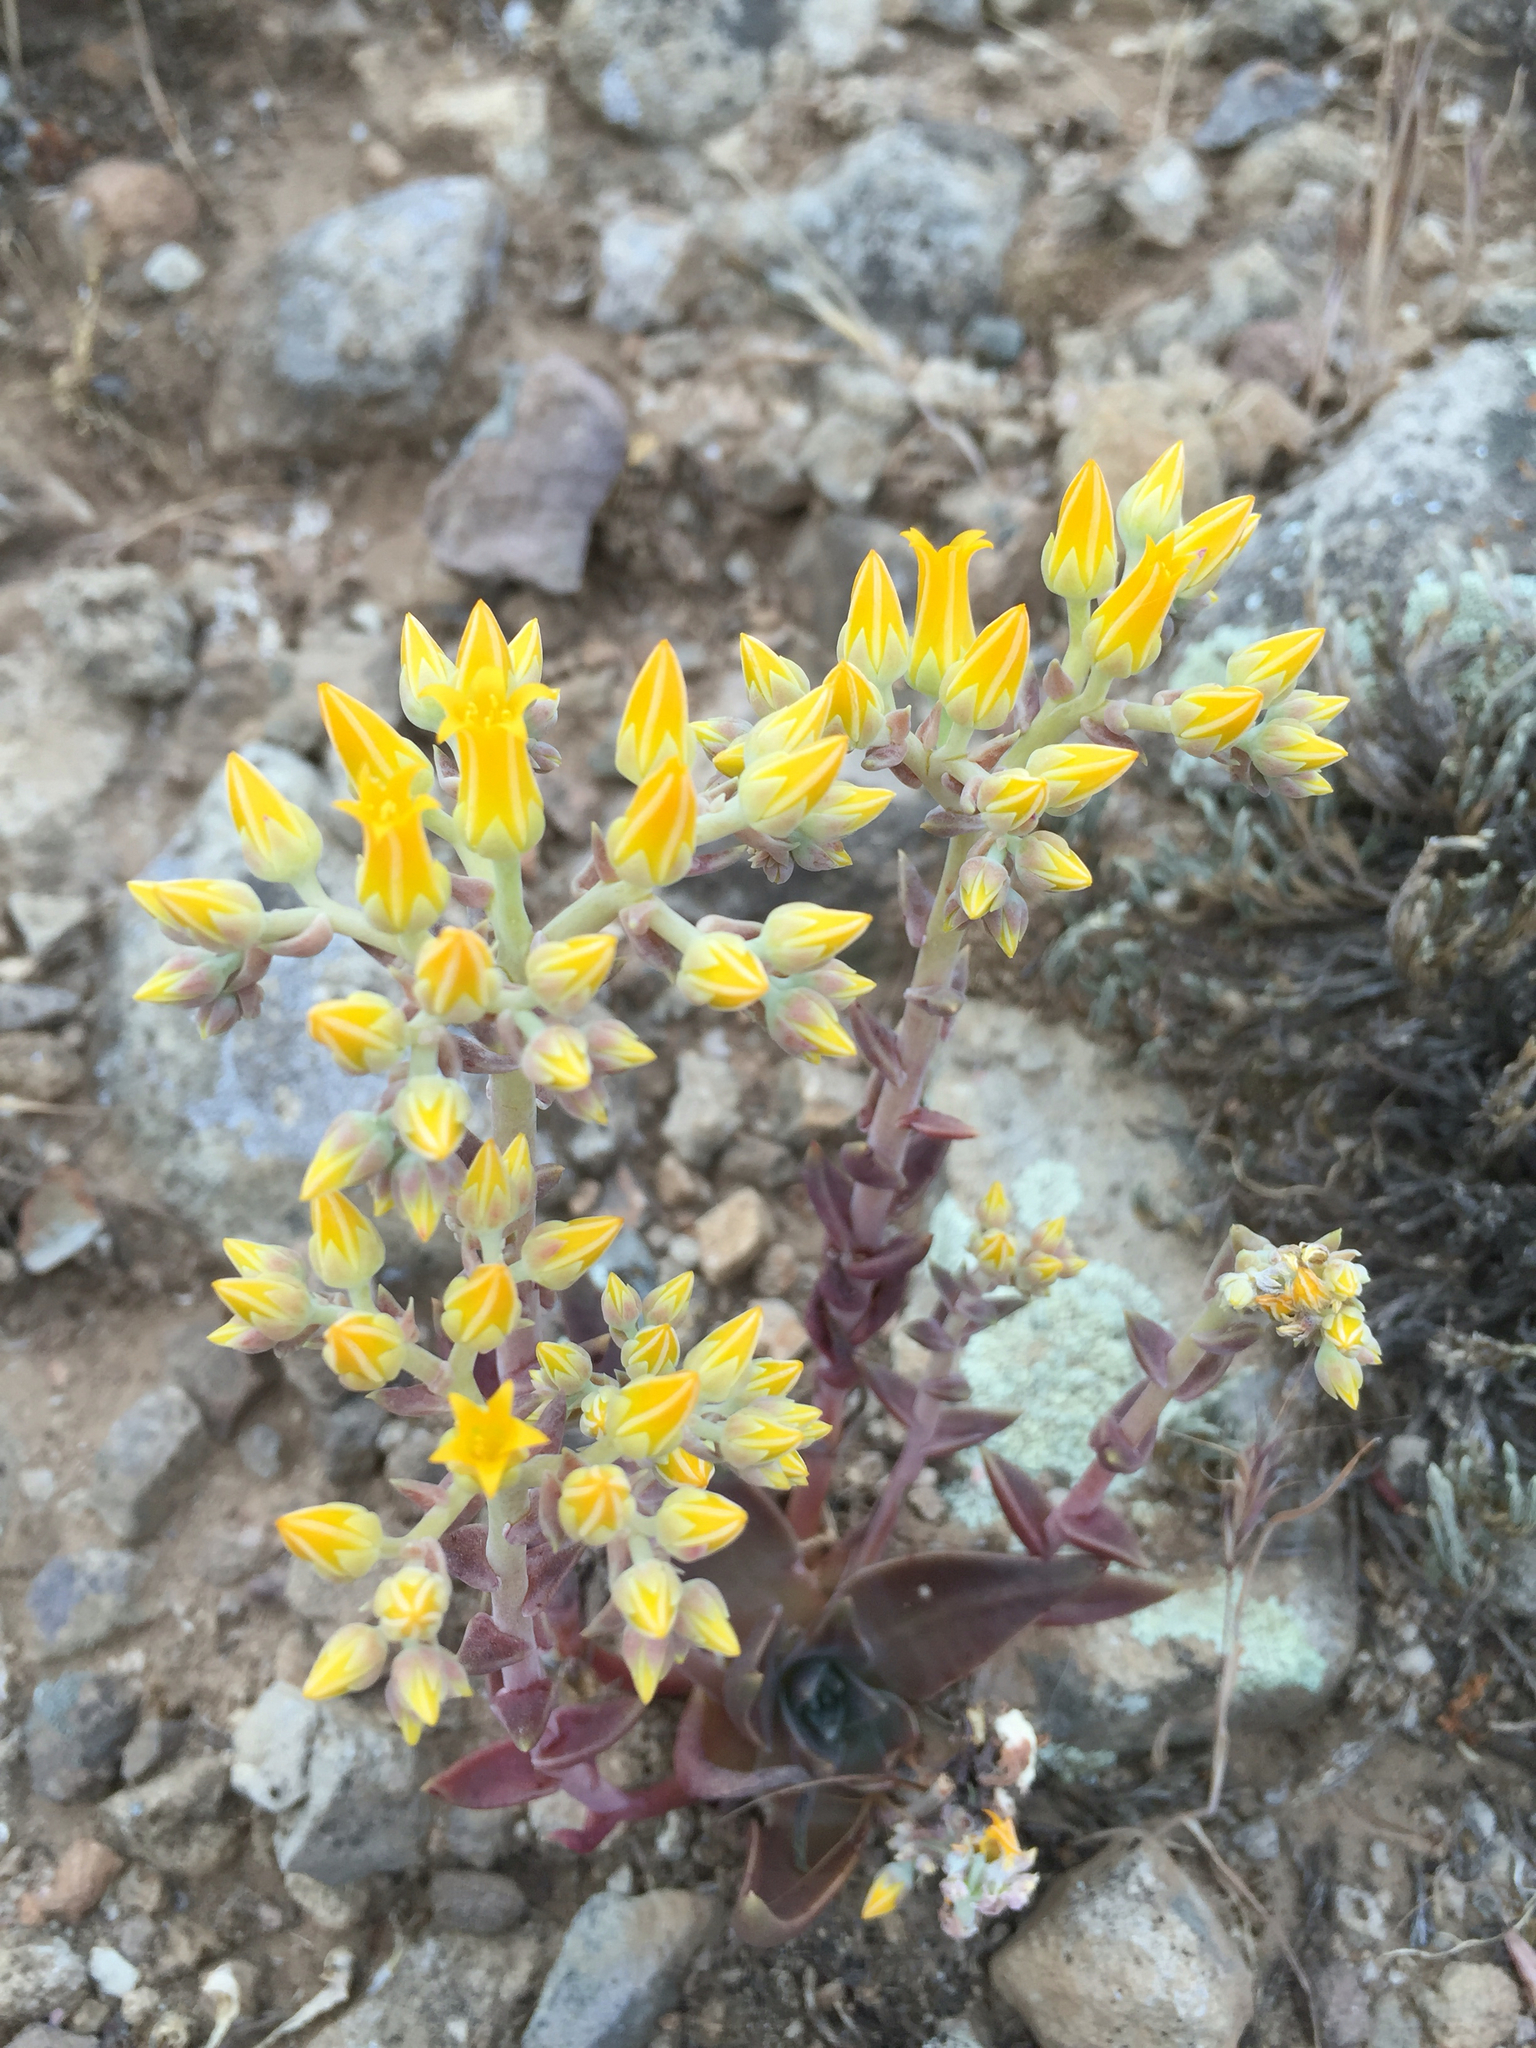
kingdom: Plantae
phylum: Tracheophyta
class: Magnoliopsida
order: Saxifragales
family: Crassulaceae
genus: Dudleya
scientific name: Dudleya cymosa
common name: Canyon dudleya
